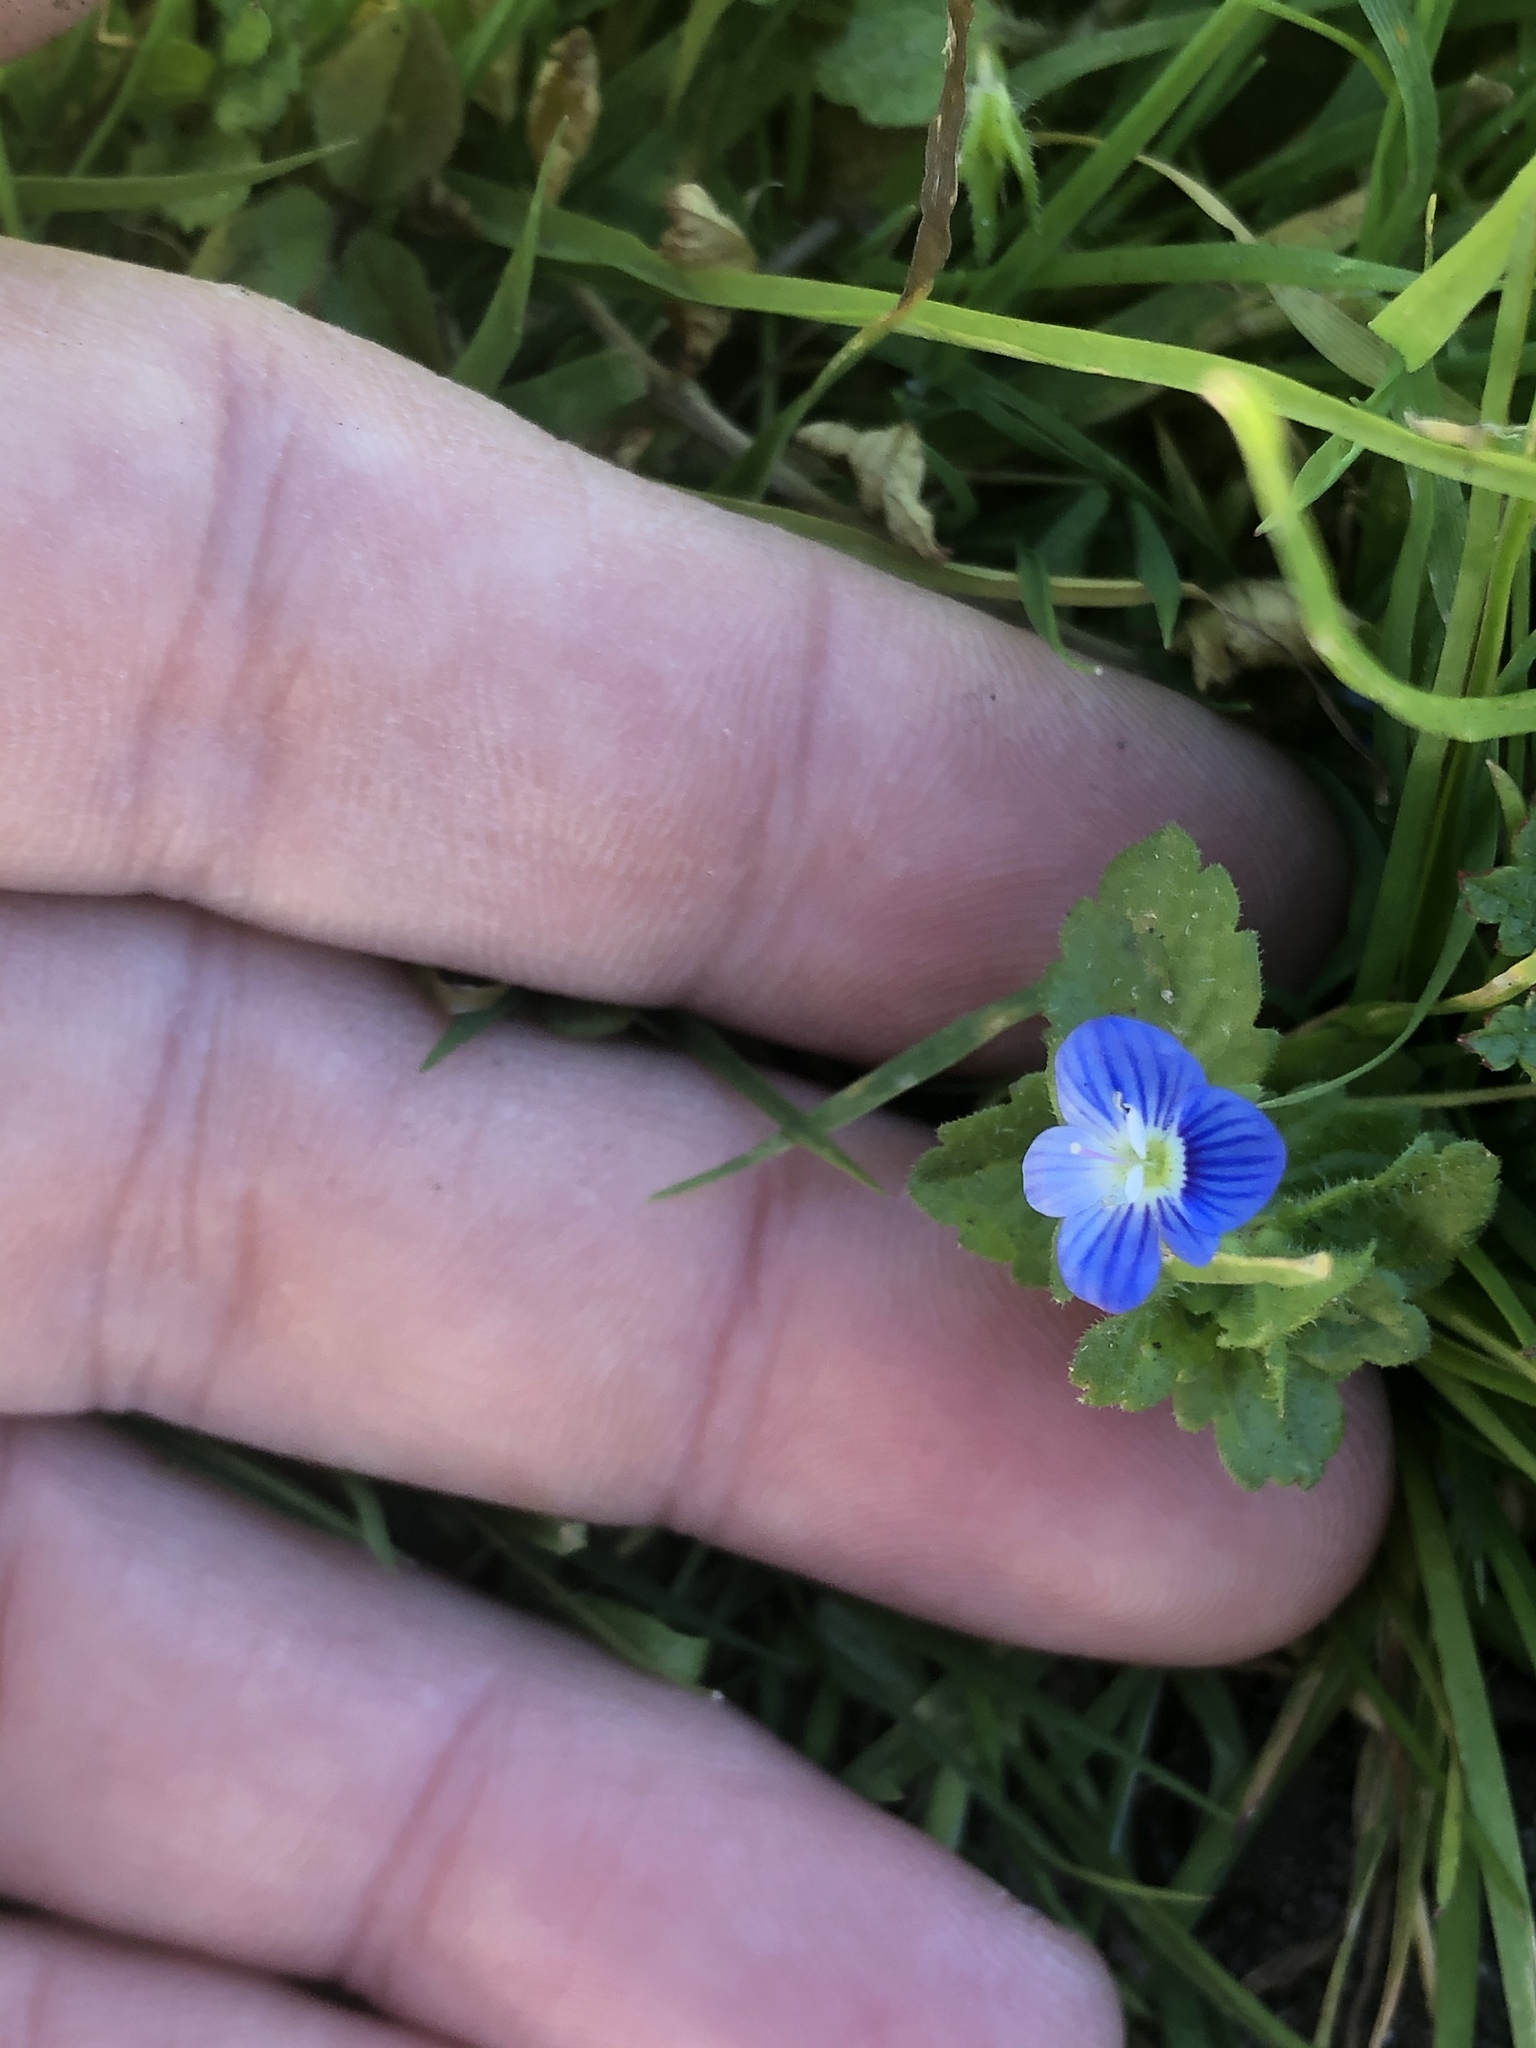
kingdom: Plantae
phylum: Tracheophyta
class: Magnoliopsida
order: Lamiales
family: Plantaginaceae
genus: Veronica
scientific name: Veronica persica
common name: Common field-speedwell
